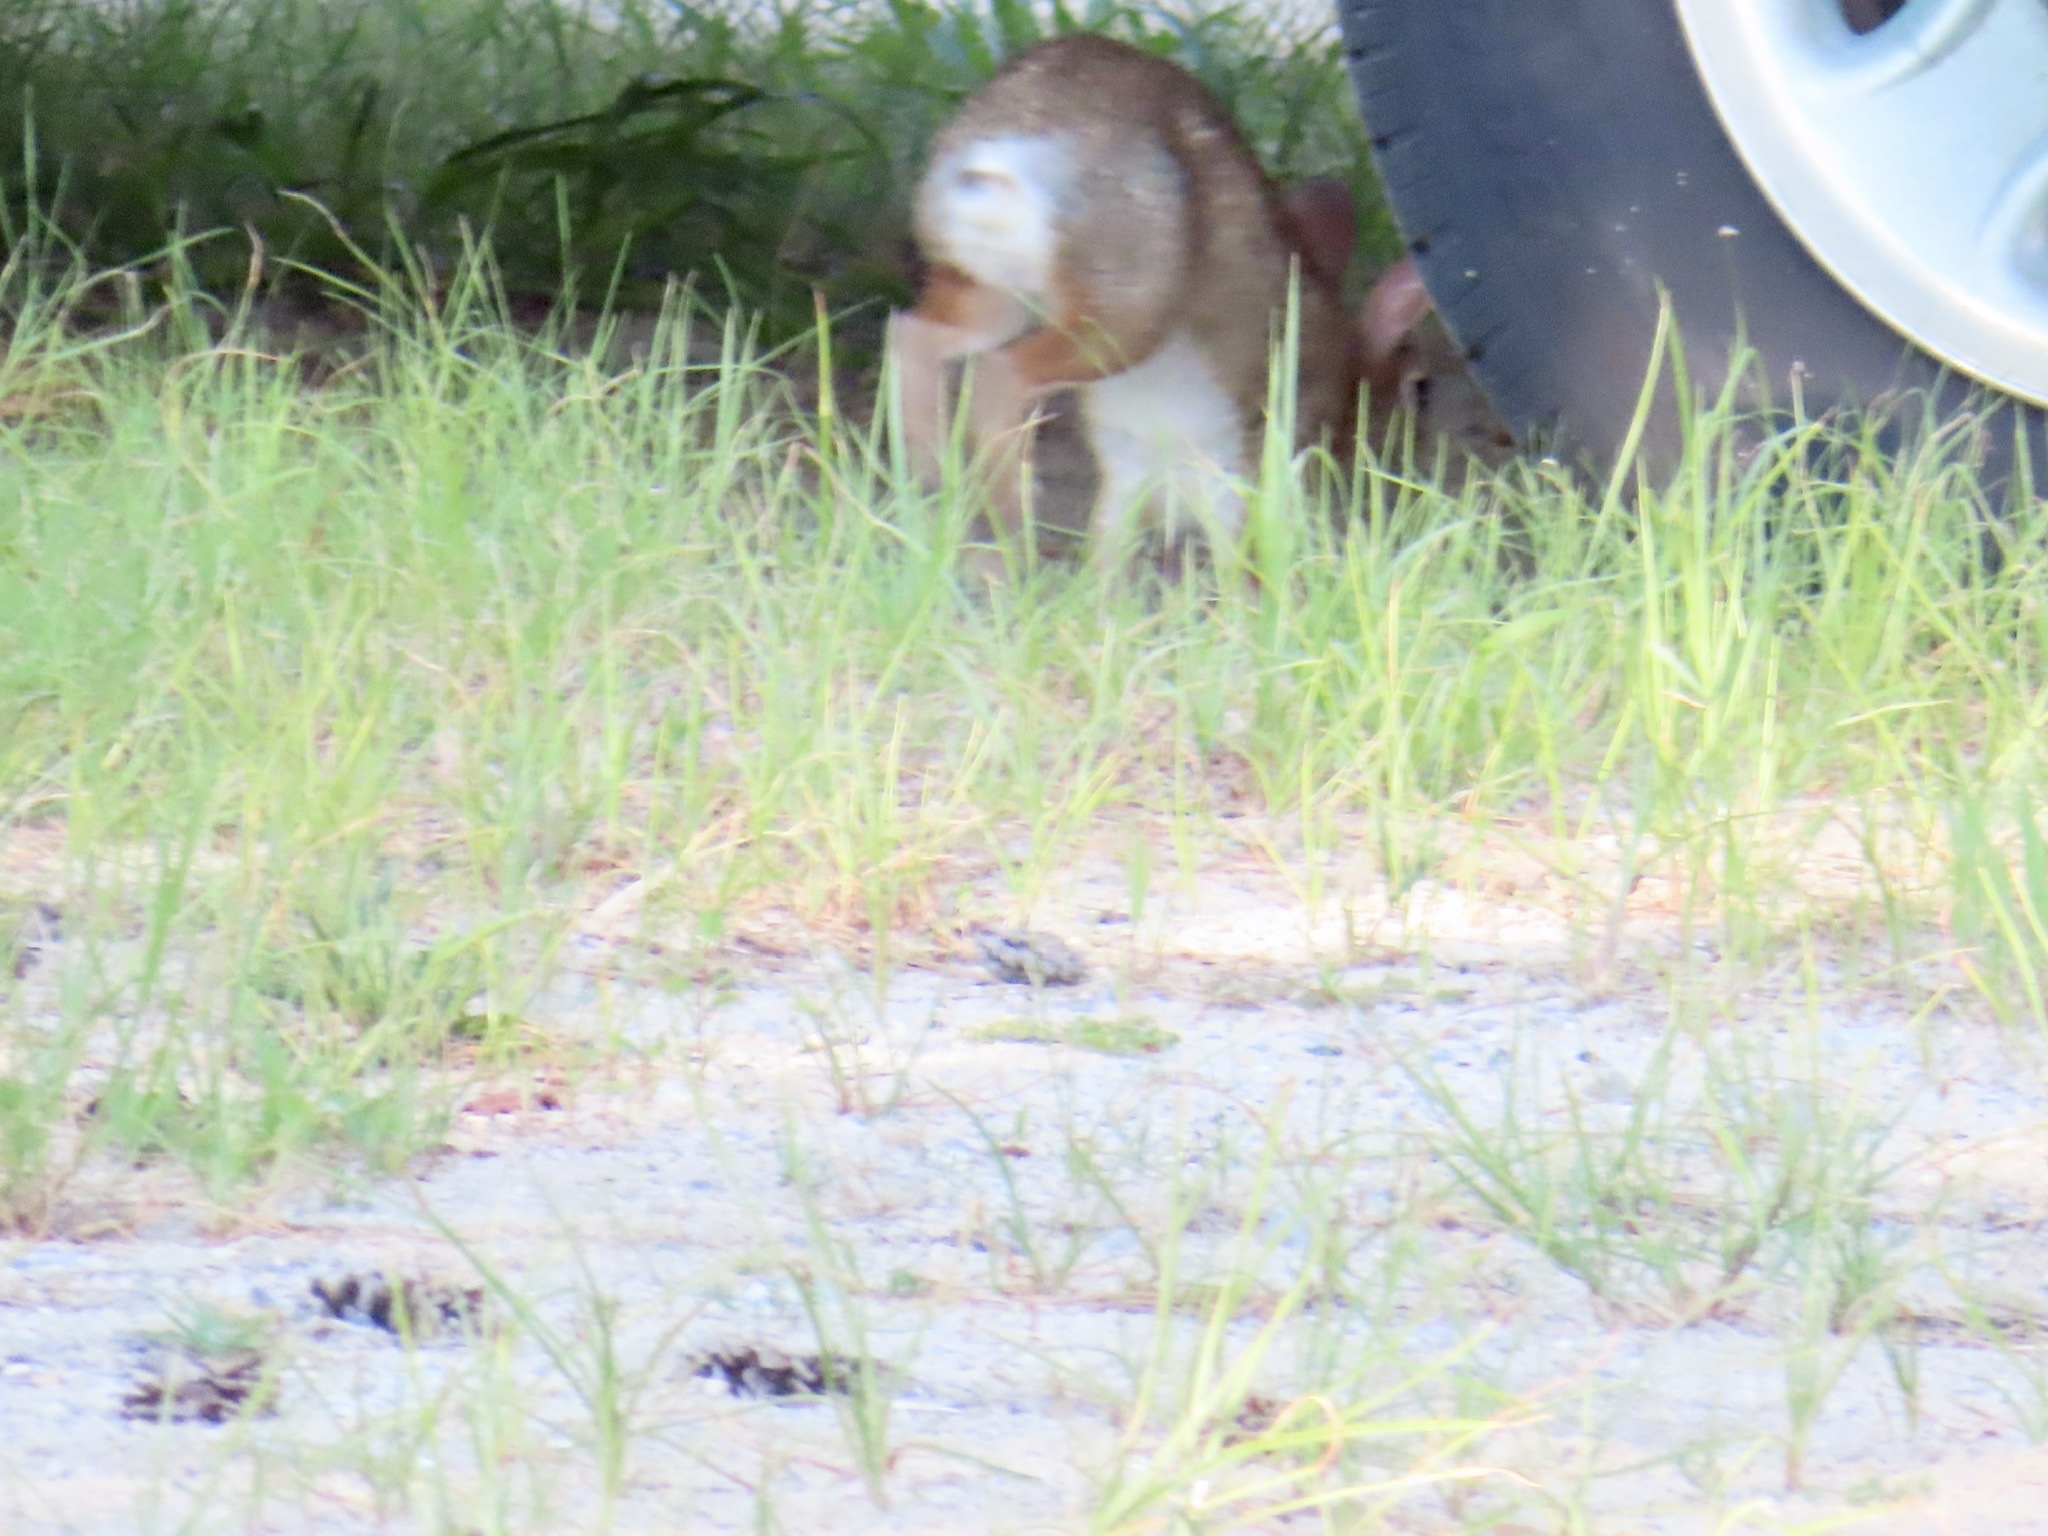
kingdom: Animalia
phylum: Chordata
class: Mammalia
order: Lagomorpha
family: Leporidae
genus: Sylvilagus
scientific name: Sylvilagus floridanus
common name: Eastern cottontail
